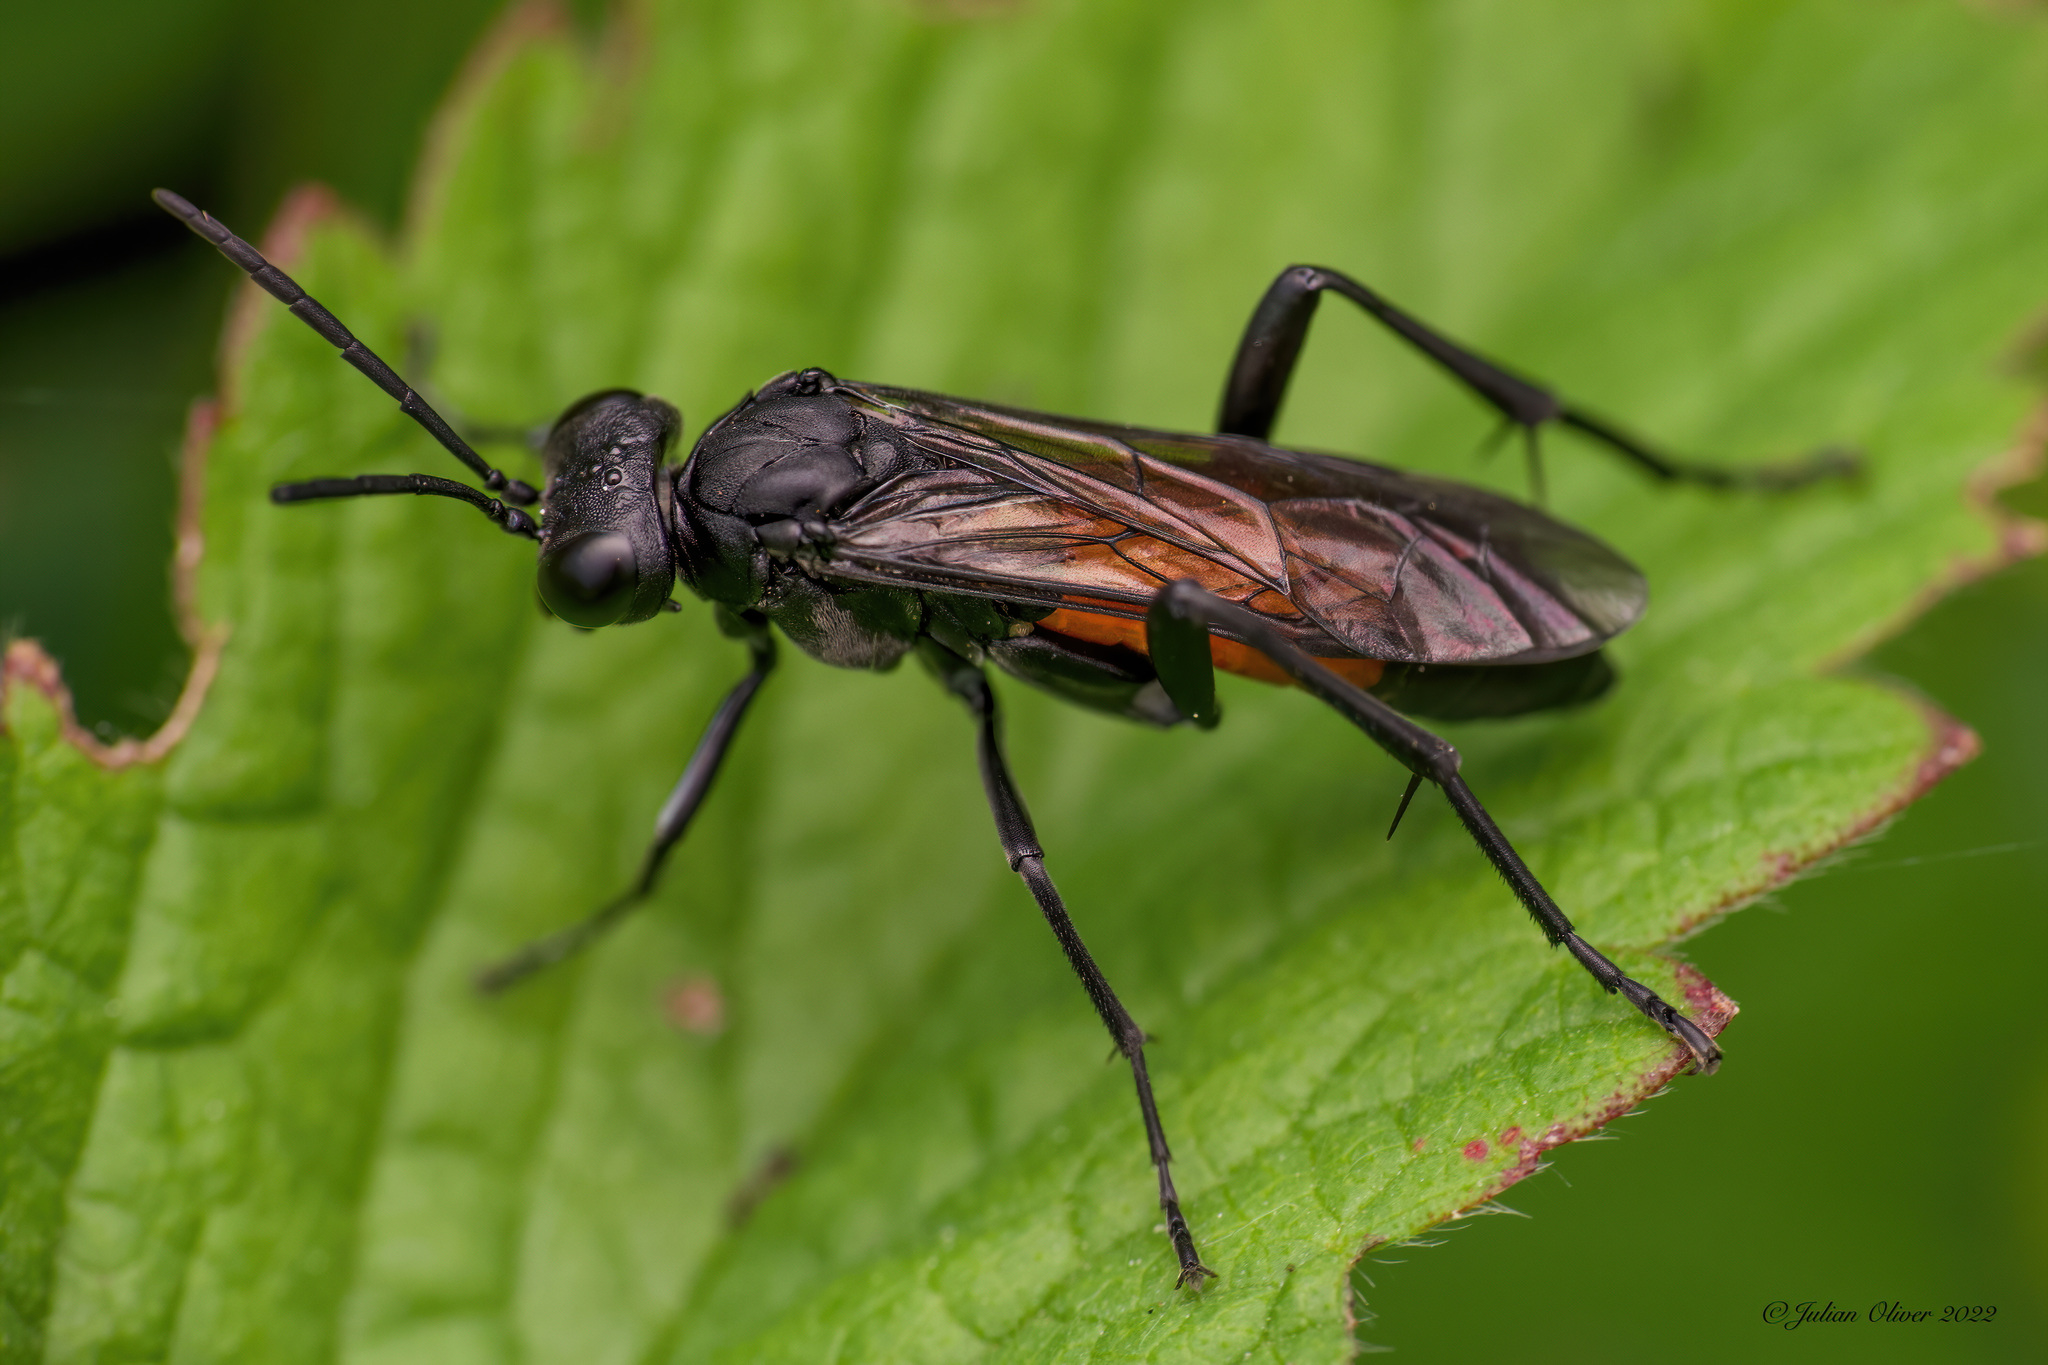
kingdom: Animalia
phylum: Arthropoda
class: Insecta
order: Hymenoptera
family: Tenthredinidae
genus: Macrophya
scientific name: Macrophya annulata
